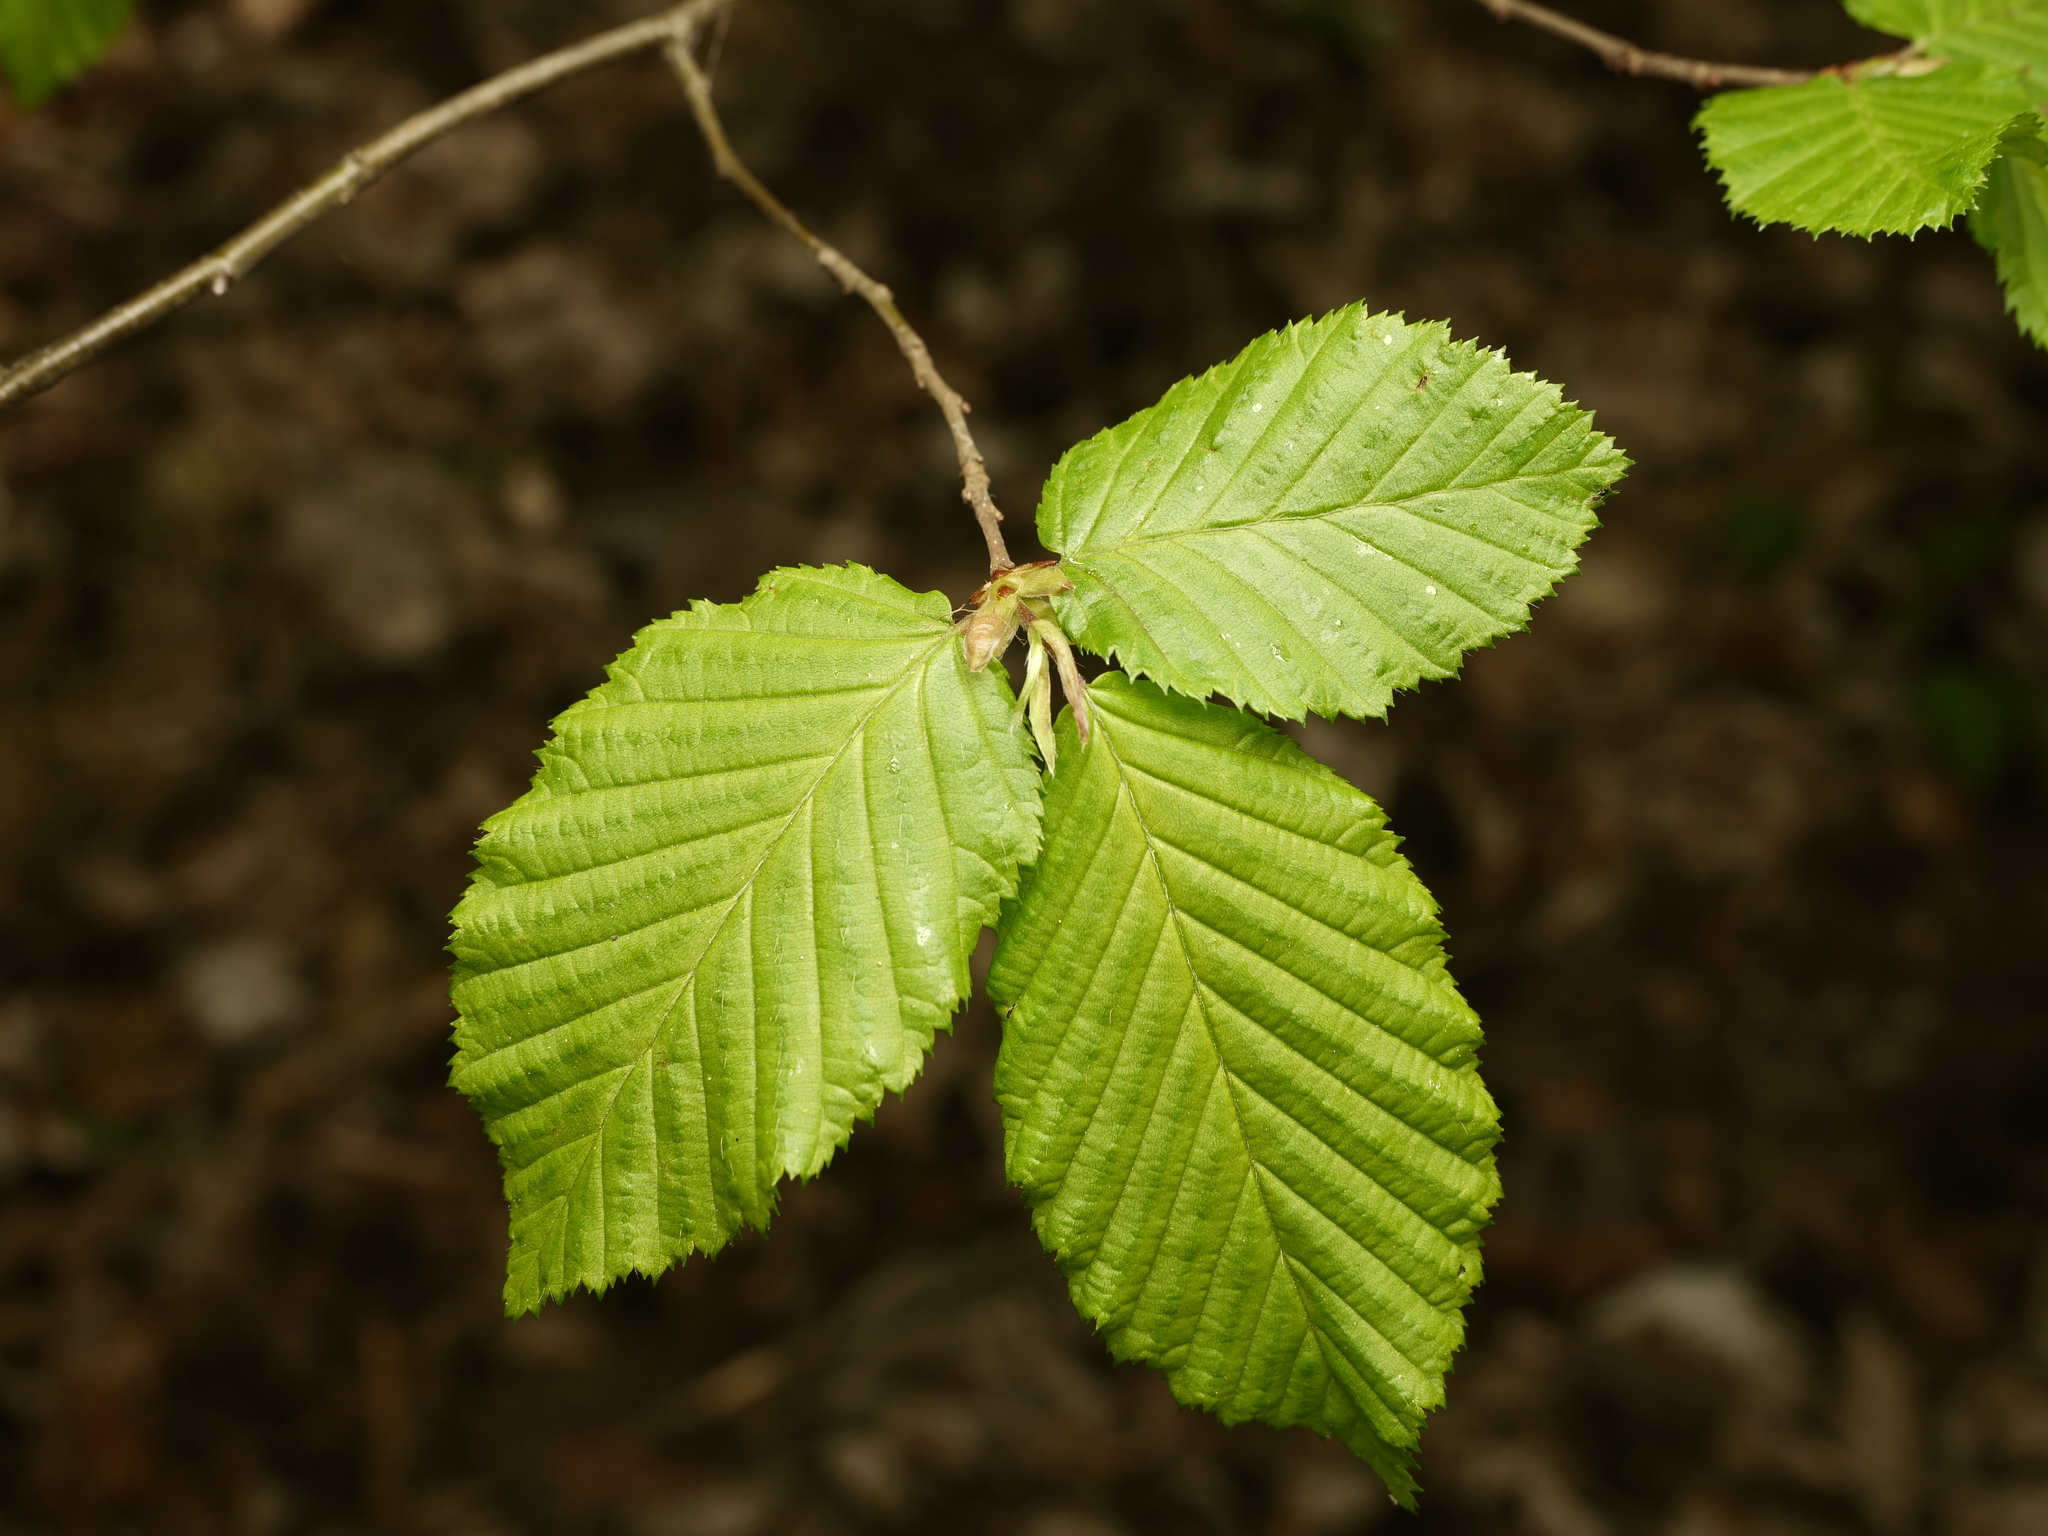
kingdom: Plantae
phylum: Tracheophyta
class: Magnoliopsida
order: Fagales
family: Betulaceae
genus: Carpinus
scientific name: Carpinus betulus
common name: Hornbeam
